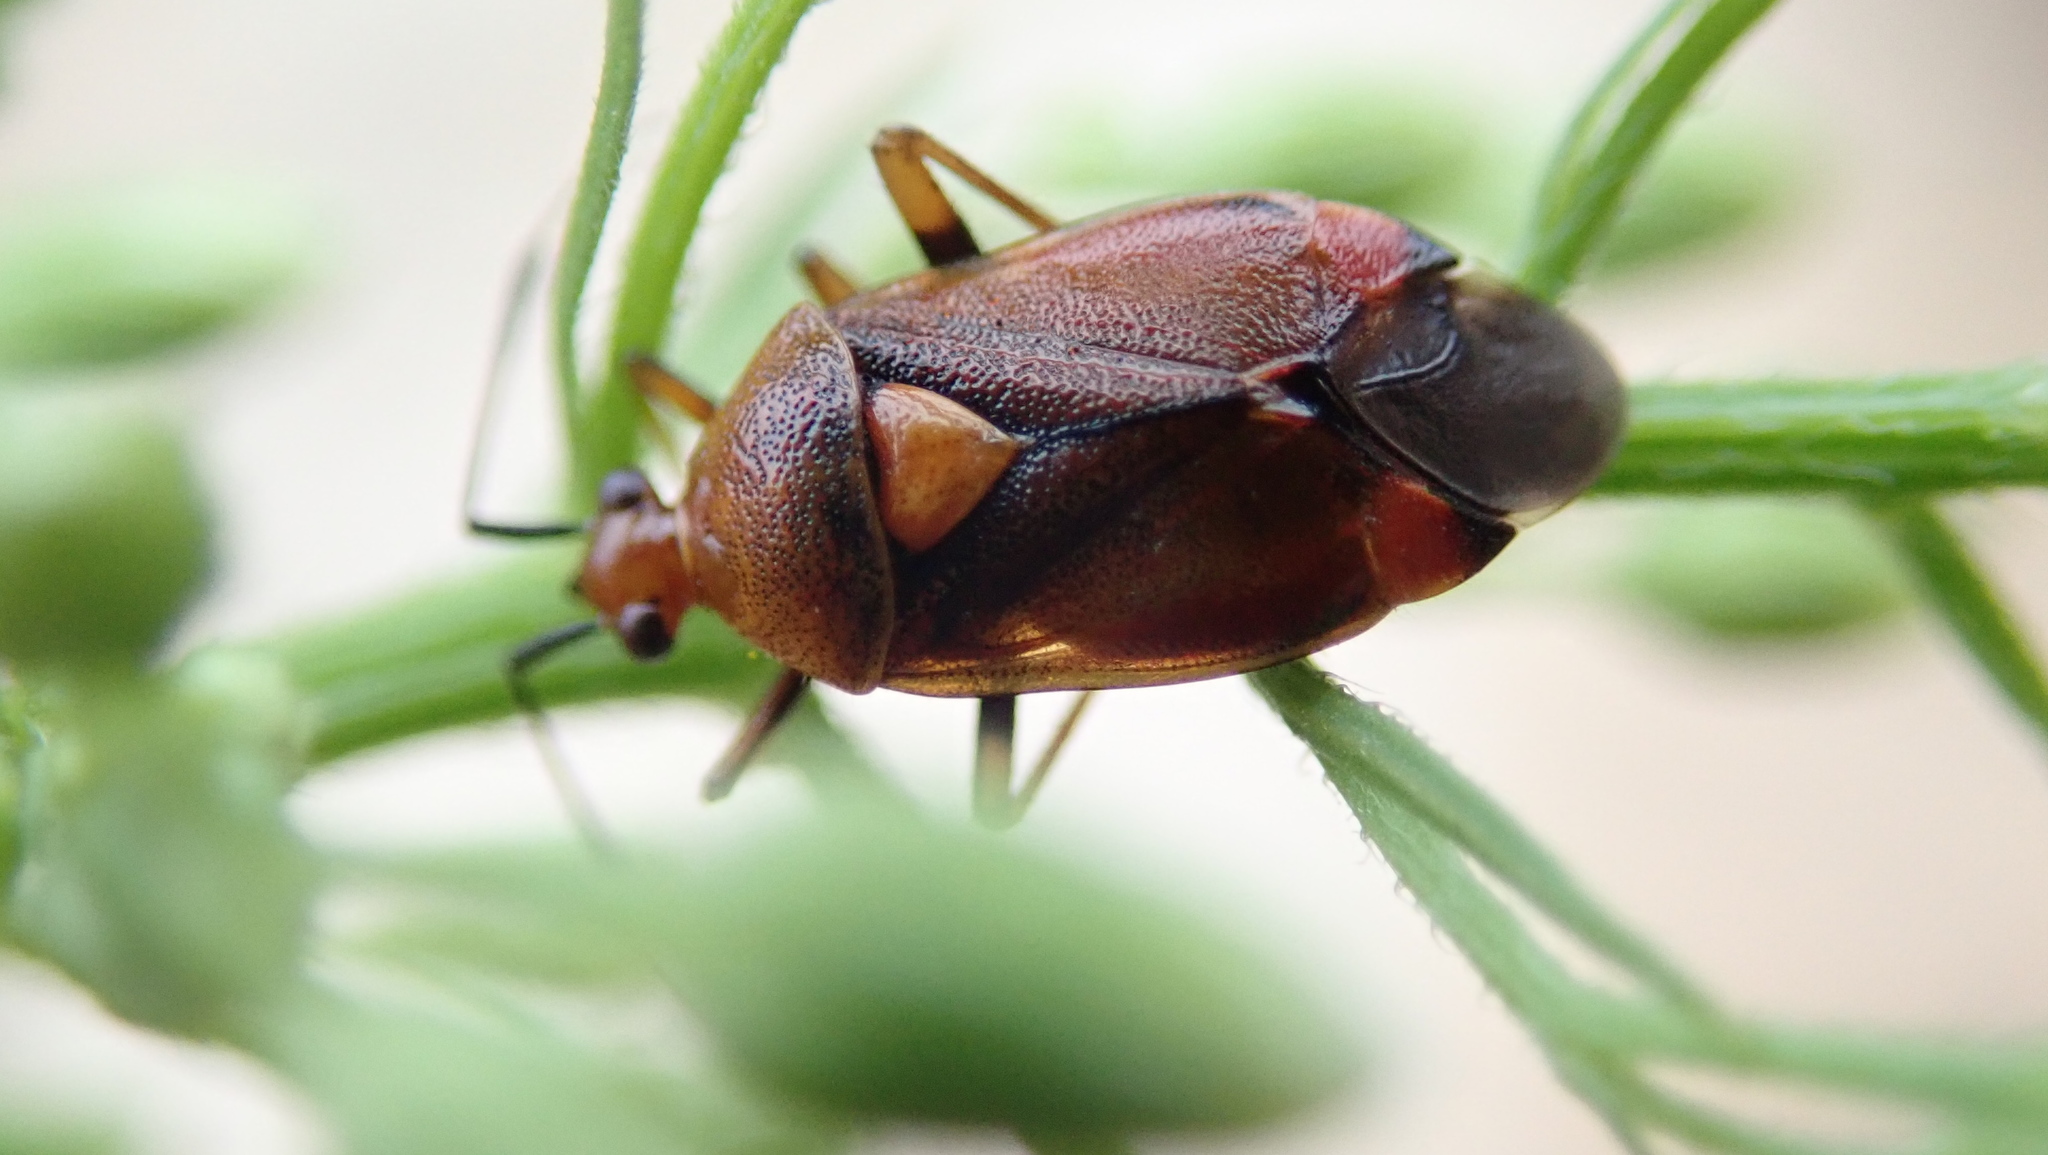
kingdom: Animalia
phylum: Arthropoda
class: Insecta
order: Hemiptera
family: Miridae
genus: Deraeocoris
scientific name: Deraeocoris ruber
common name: Plant bug
